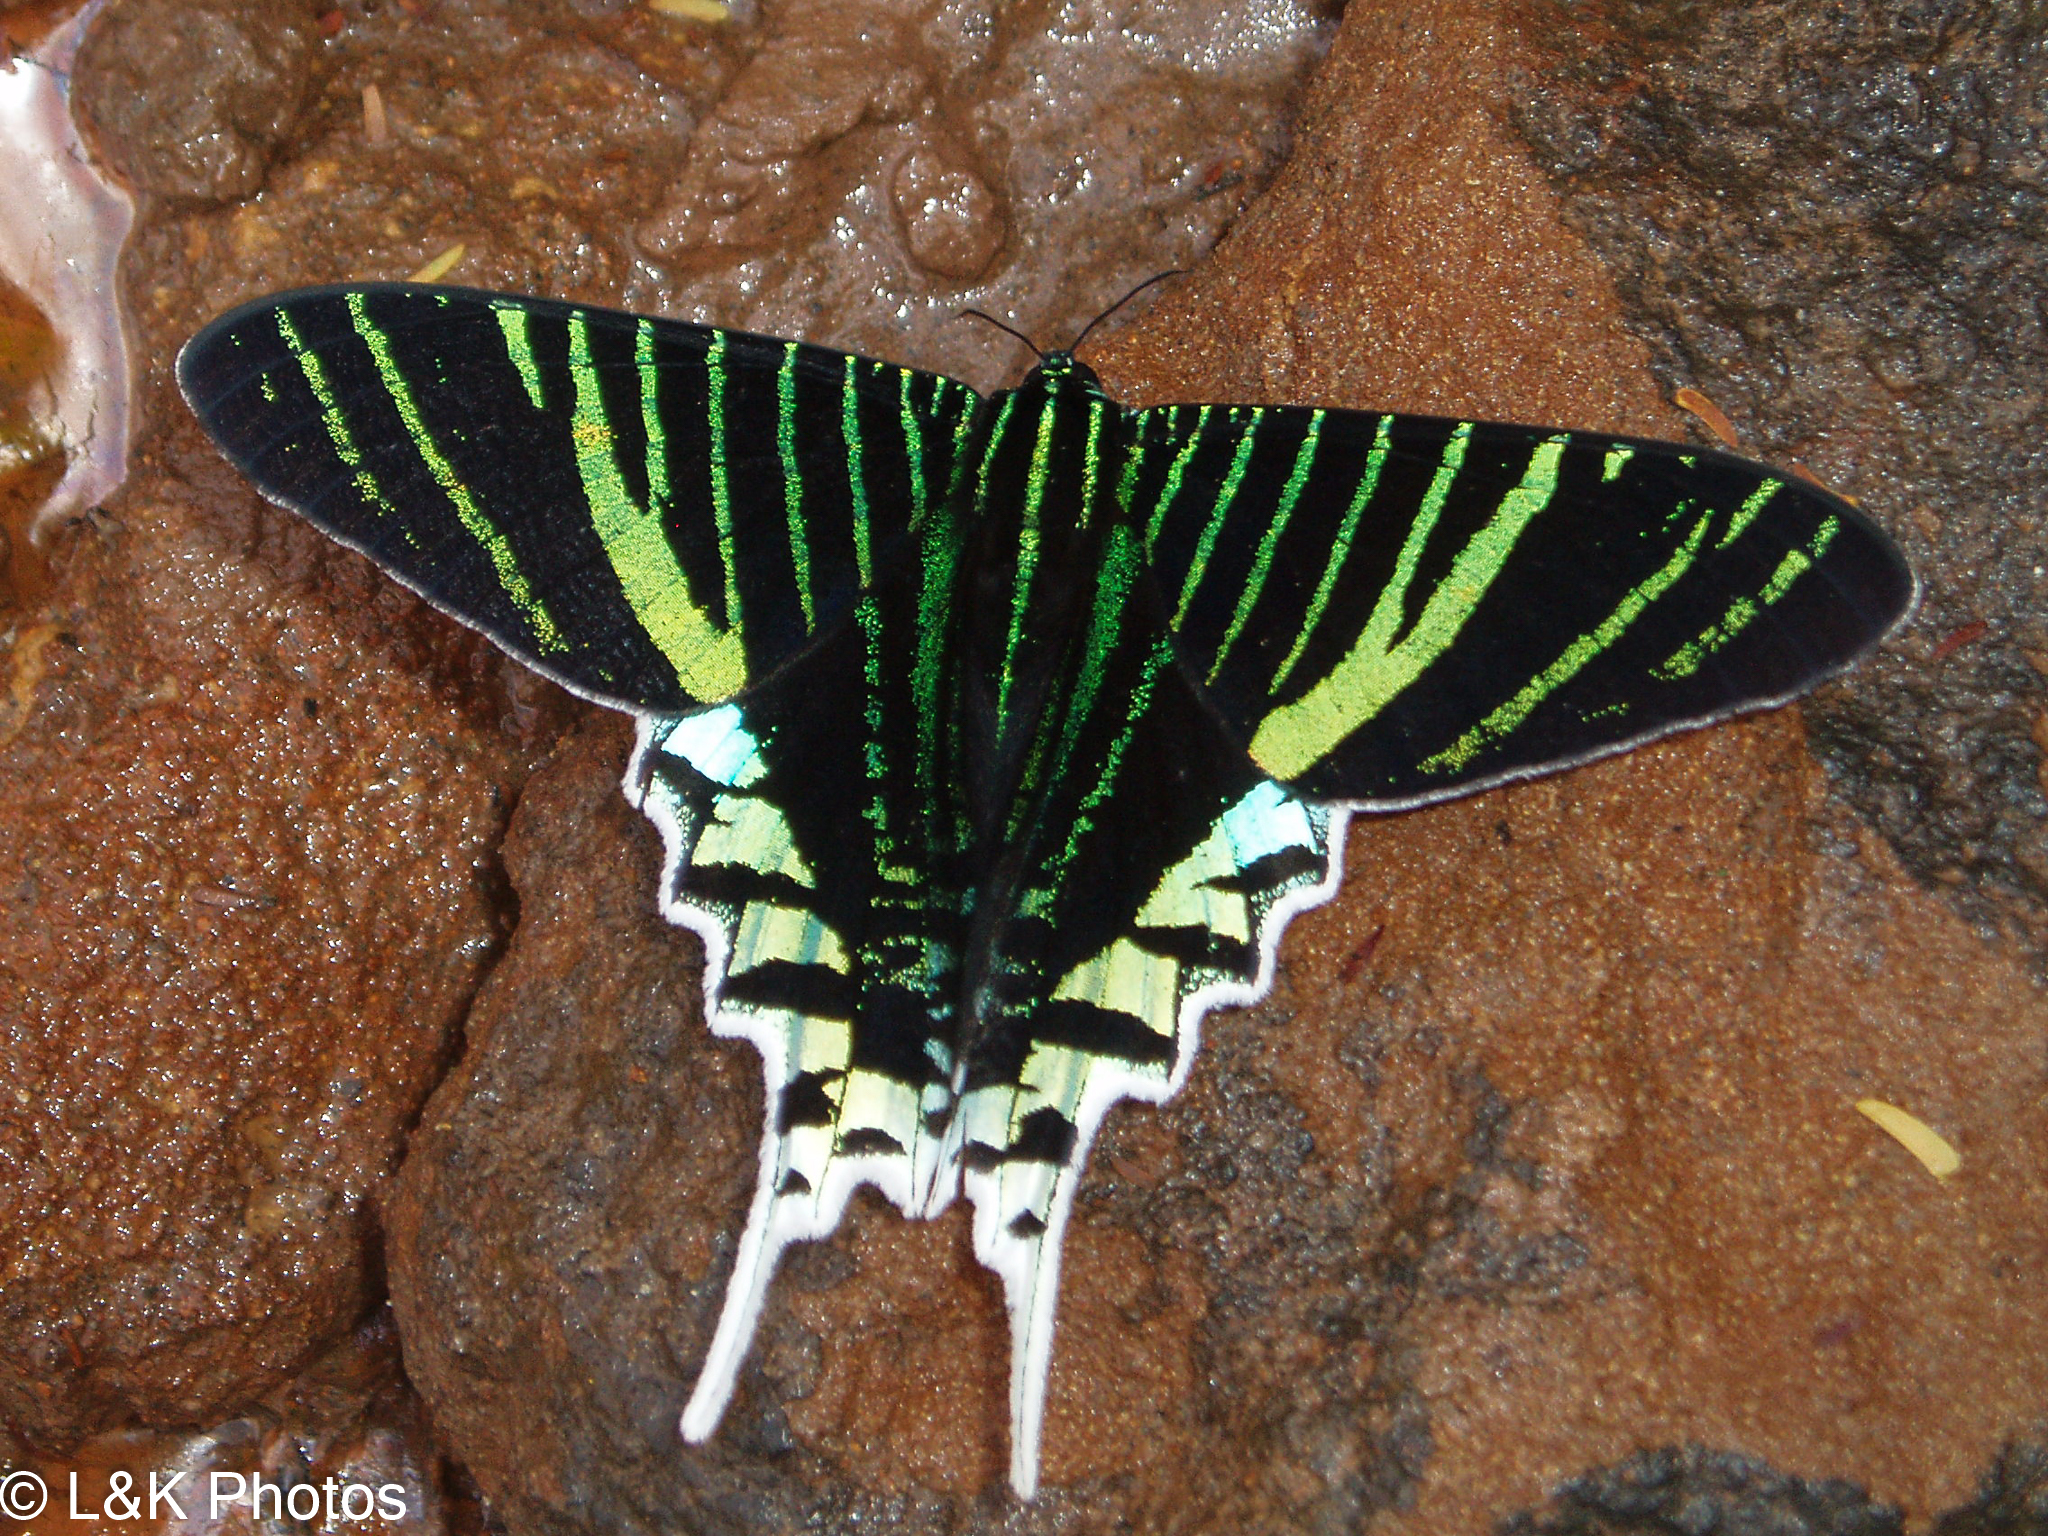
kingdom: Animalia
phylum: Arthropoda
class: Insecta
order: Lepidoptera
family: Uraniidae
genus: Urania
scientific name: Urania leilus
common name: Peacock moth
